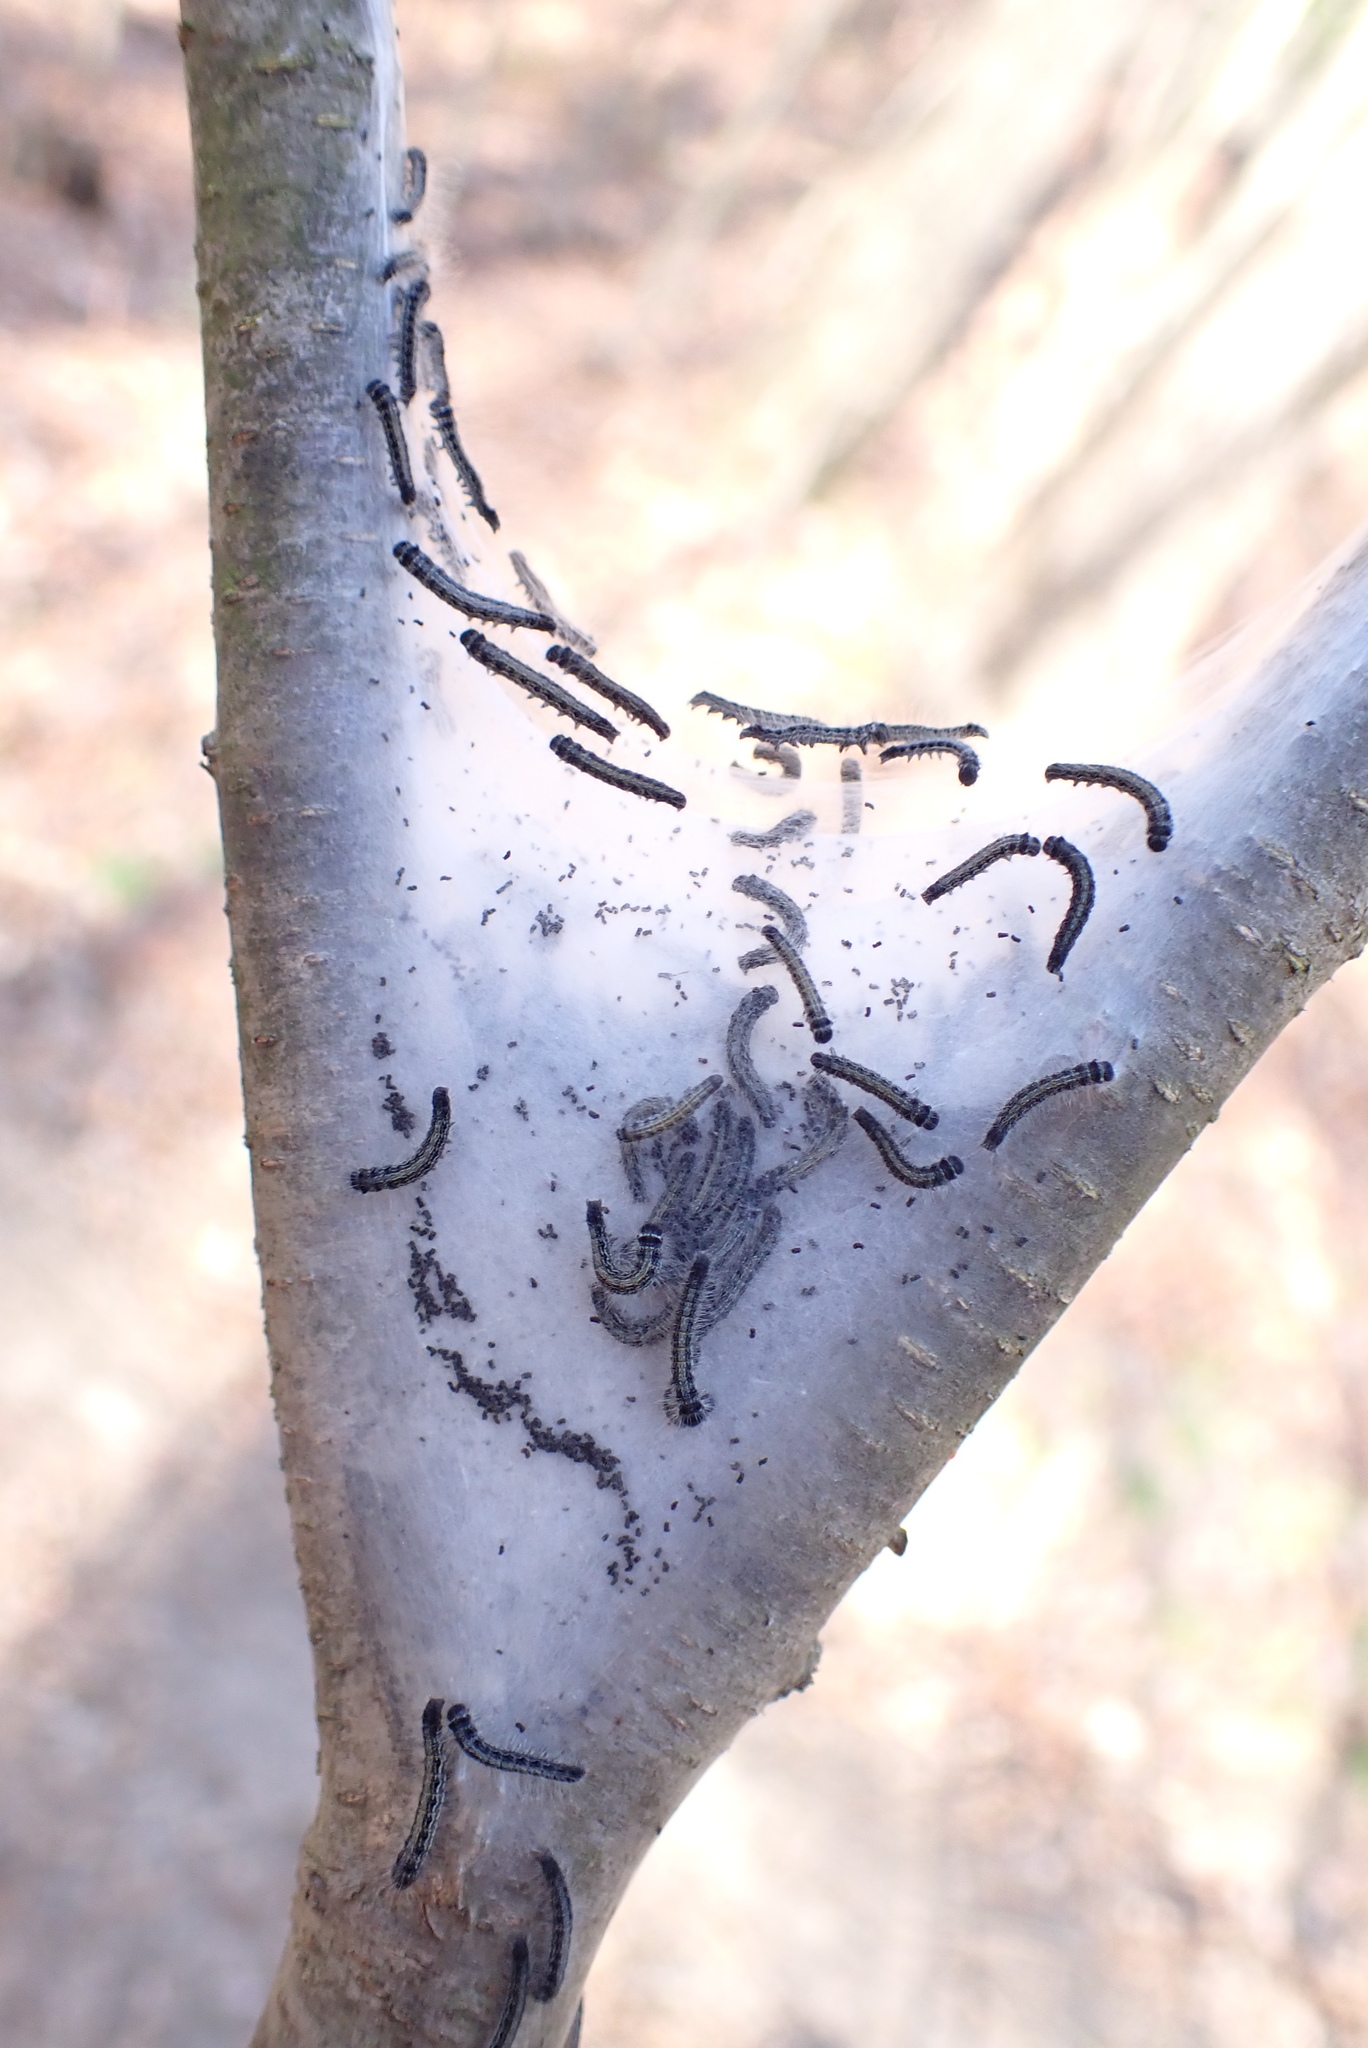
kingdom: Animalia
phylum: Arthropoda
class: Insecta
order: Lepidoptera
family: Lasiocampidae
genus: Malacosoma
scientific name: Malacosoma americana
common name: Eastern tent caterpillar moth
